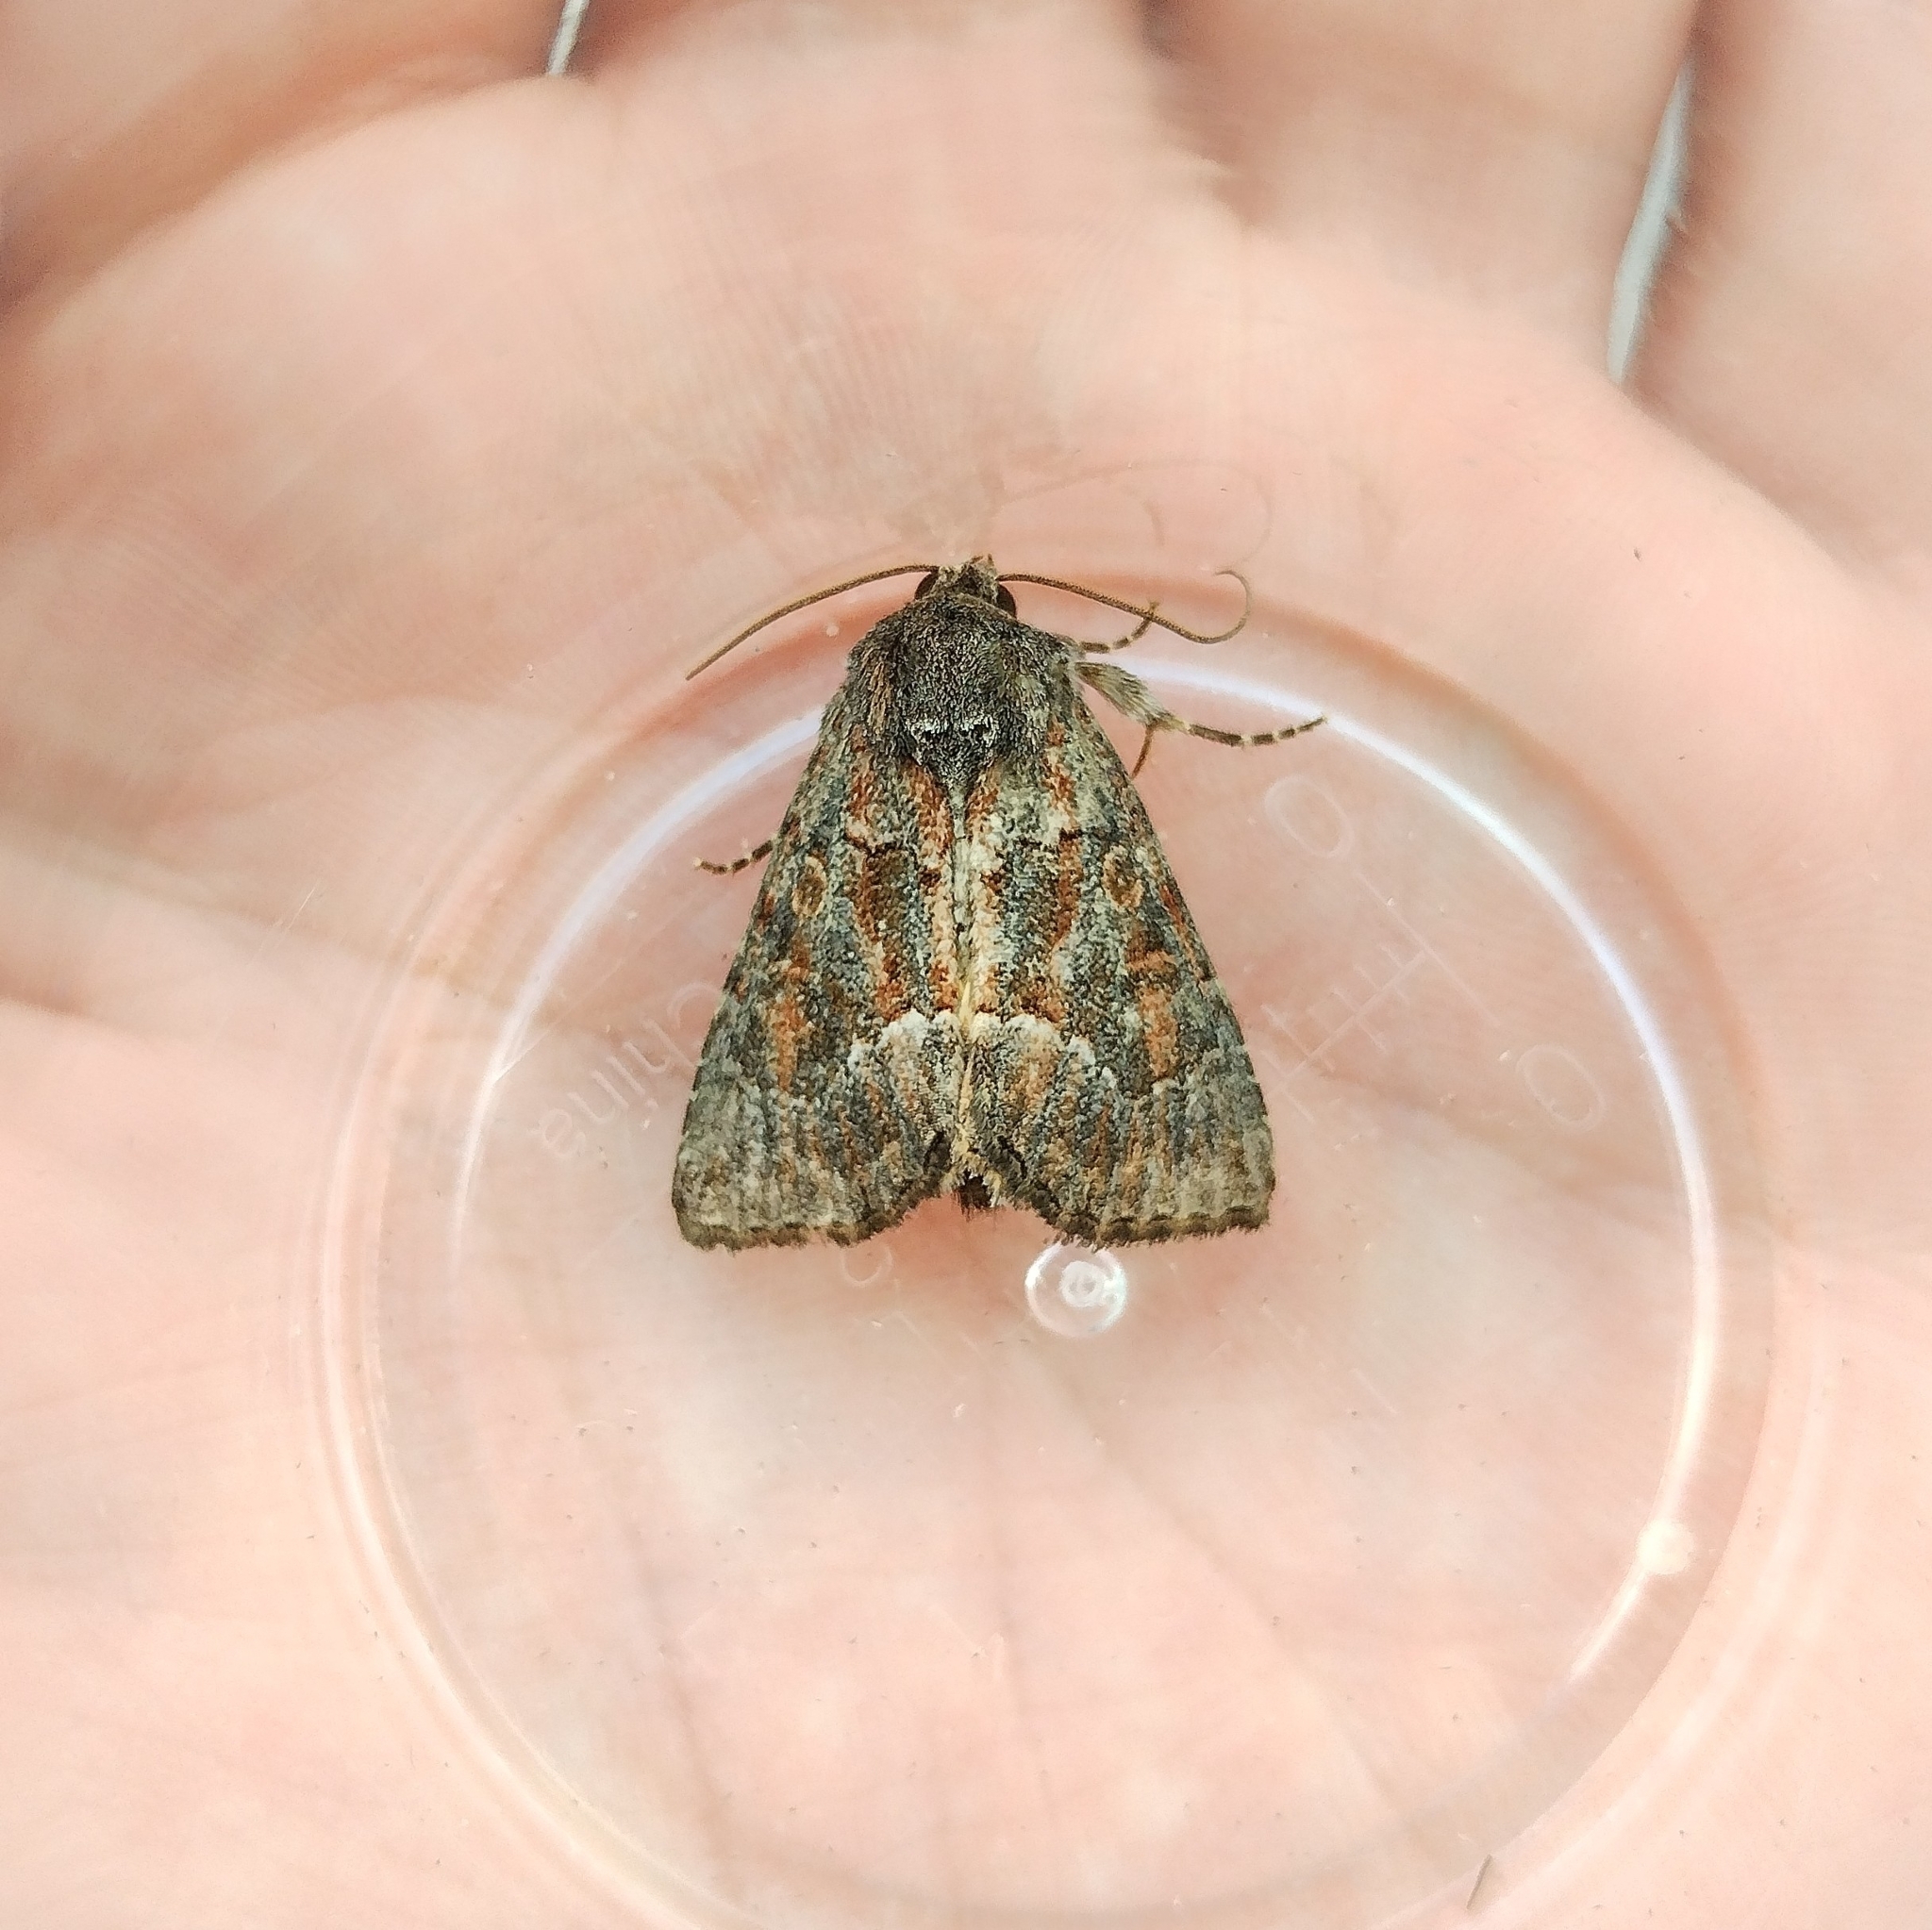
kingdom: Animalia
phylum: Arthropoda
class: Insecta
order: Lepidoptera
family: Noctuidae
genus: Thalpophila
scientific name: Thalpophila matura
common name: Straw underwing
